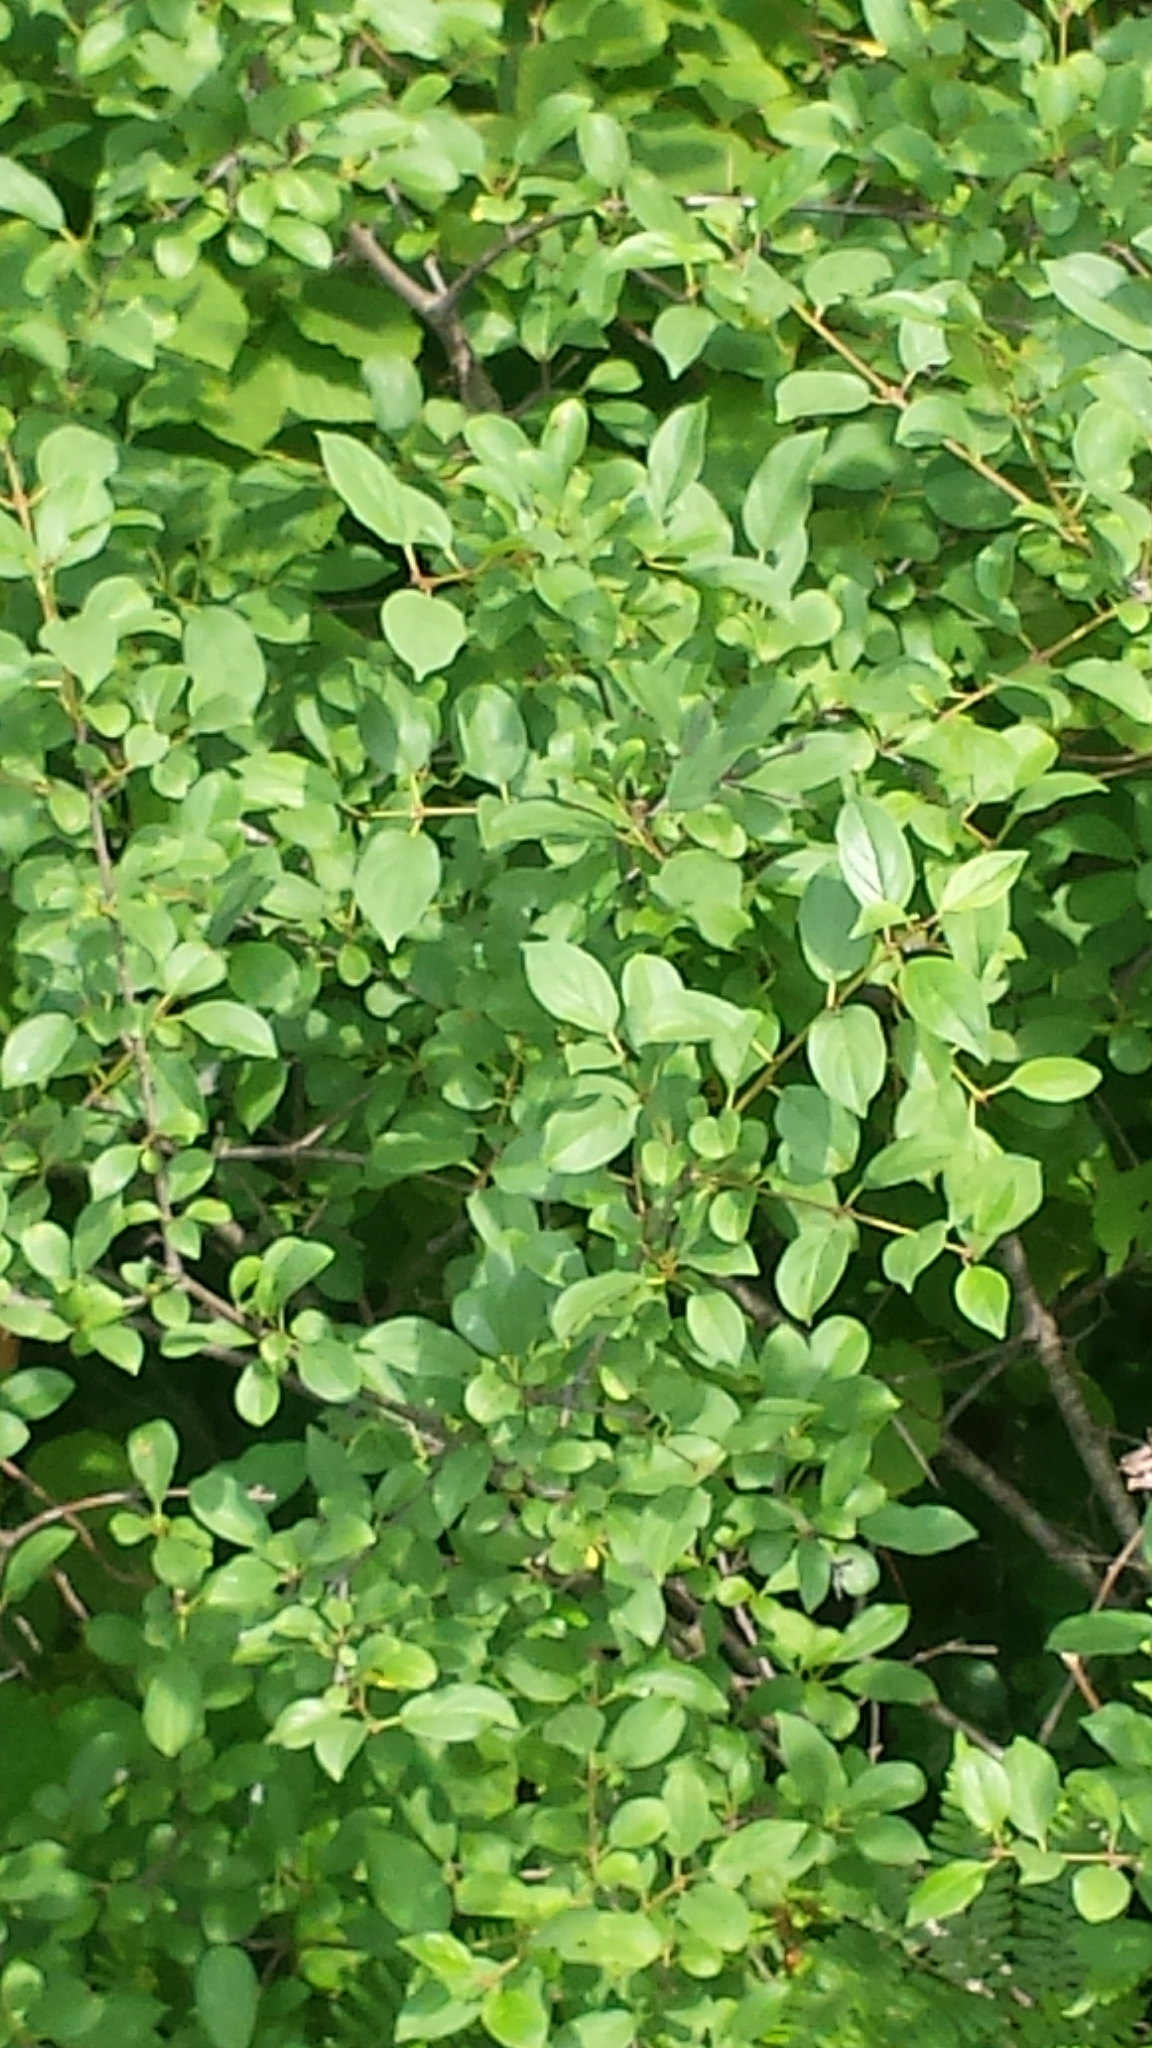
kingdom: Plantae
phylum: Tracheophyta
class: Magnoliopsida
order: Rosales
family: Rhamnaceae
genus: Rhamnus
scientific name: Rhamnus cathartica
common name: Common buckthorn
